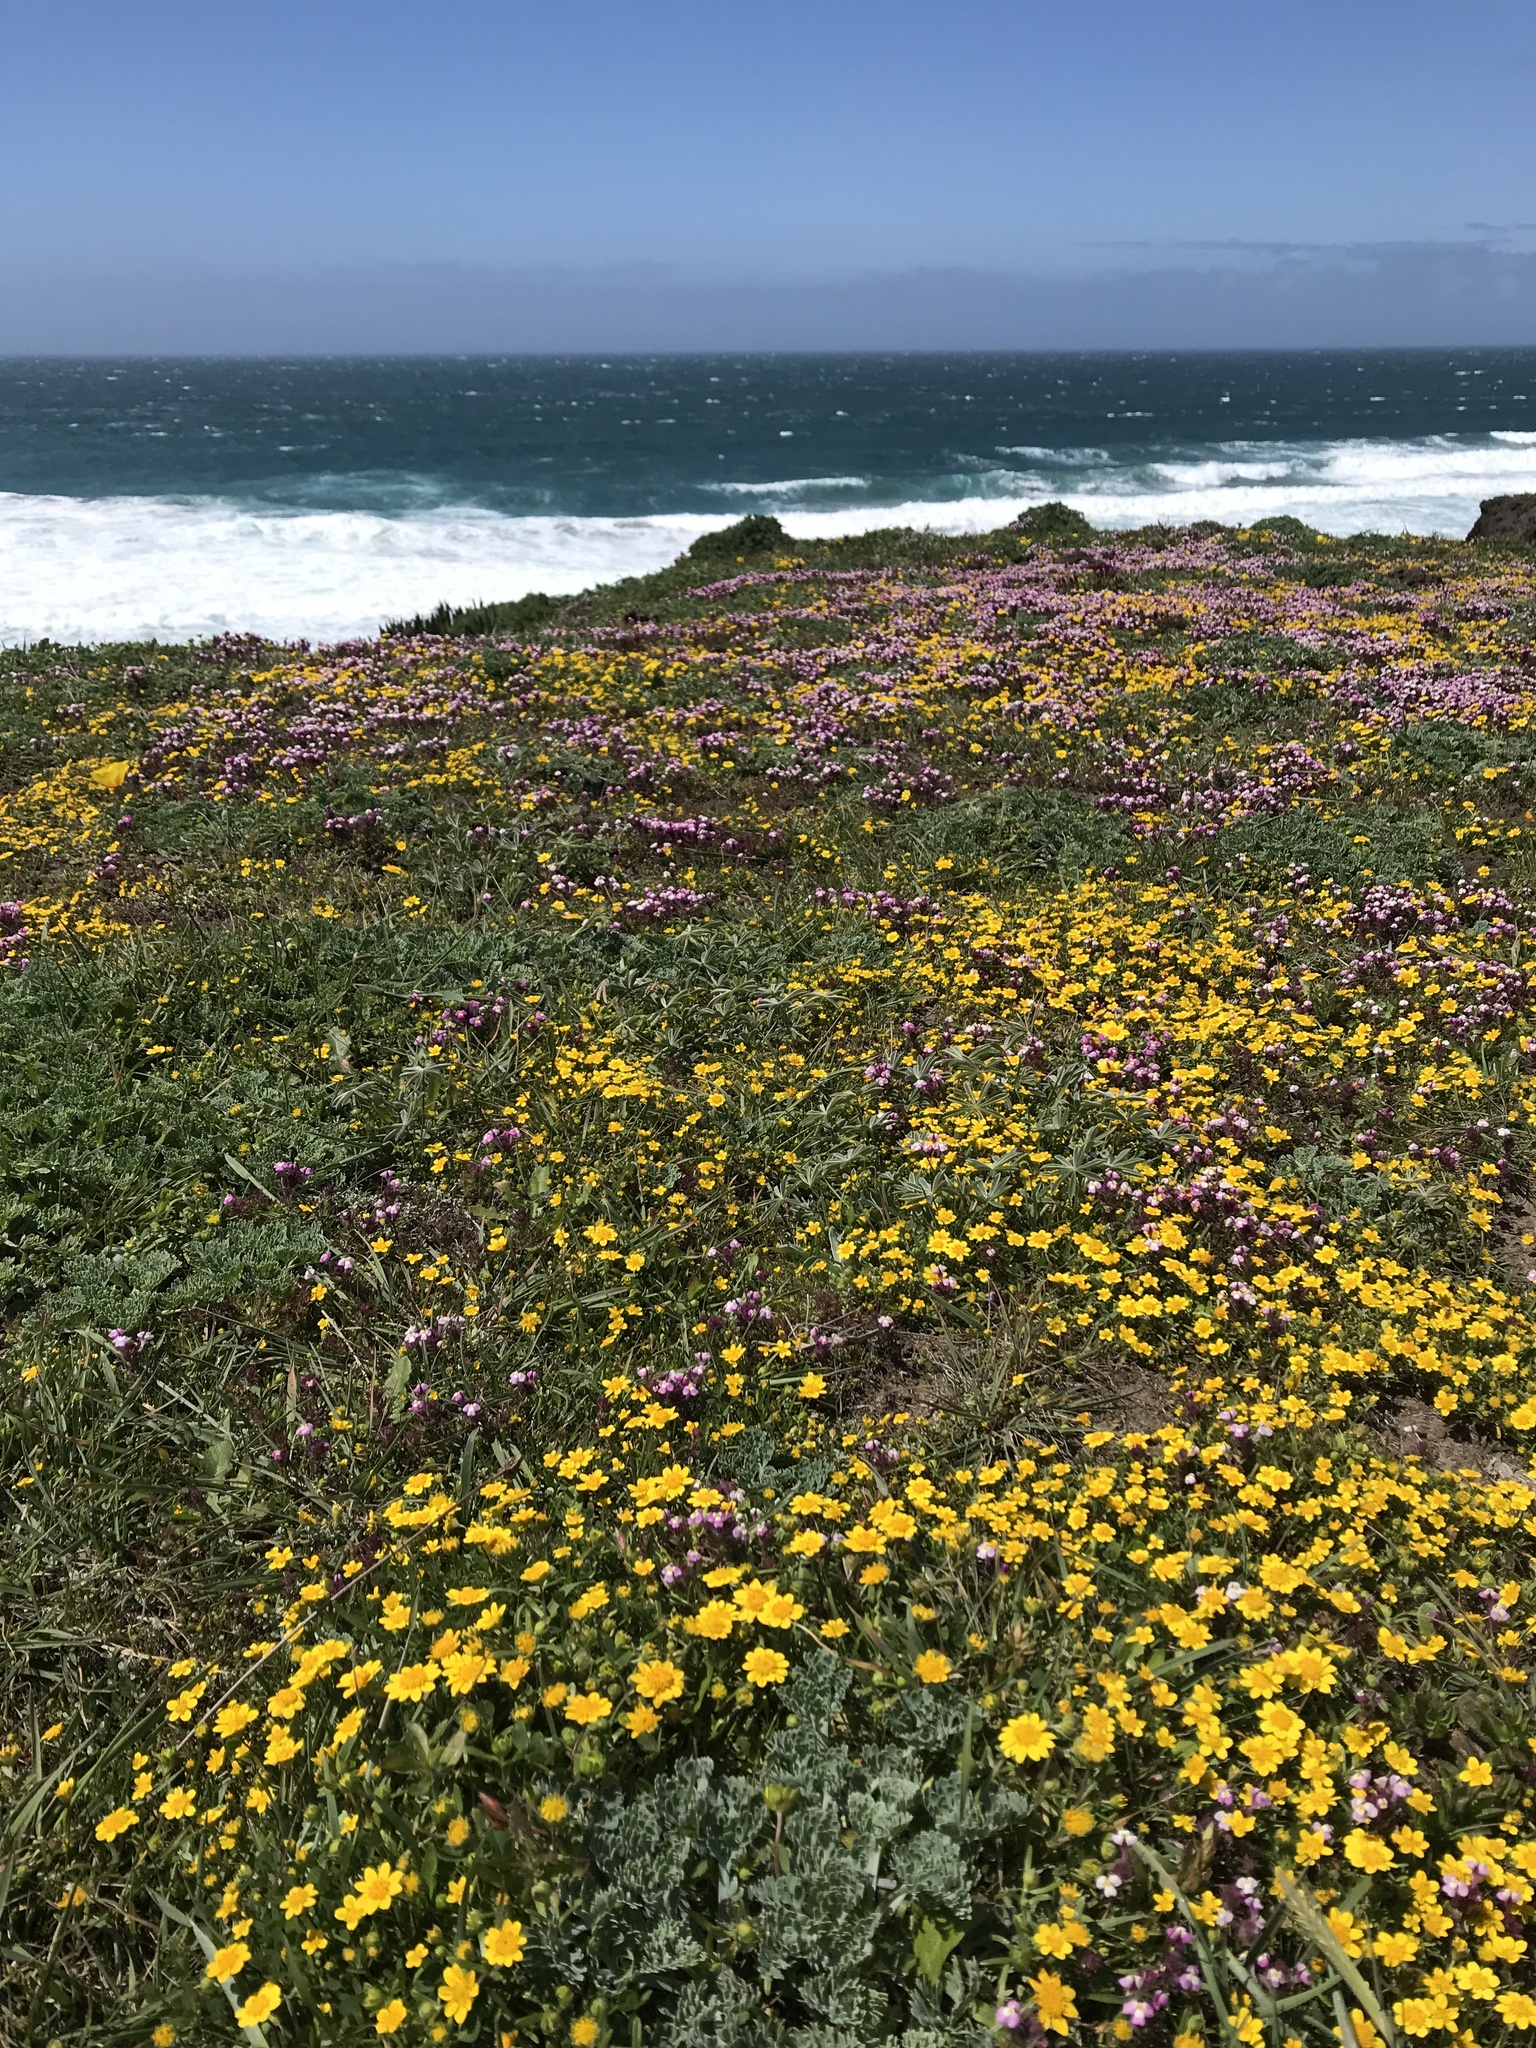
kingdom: Plantae
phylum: Tracheophyta
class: Magnoliopsida
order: Asterales
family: Asteraceae
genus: Lasthenia
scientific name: Lasthenia californica
